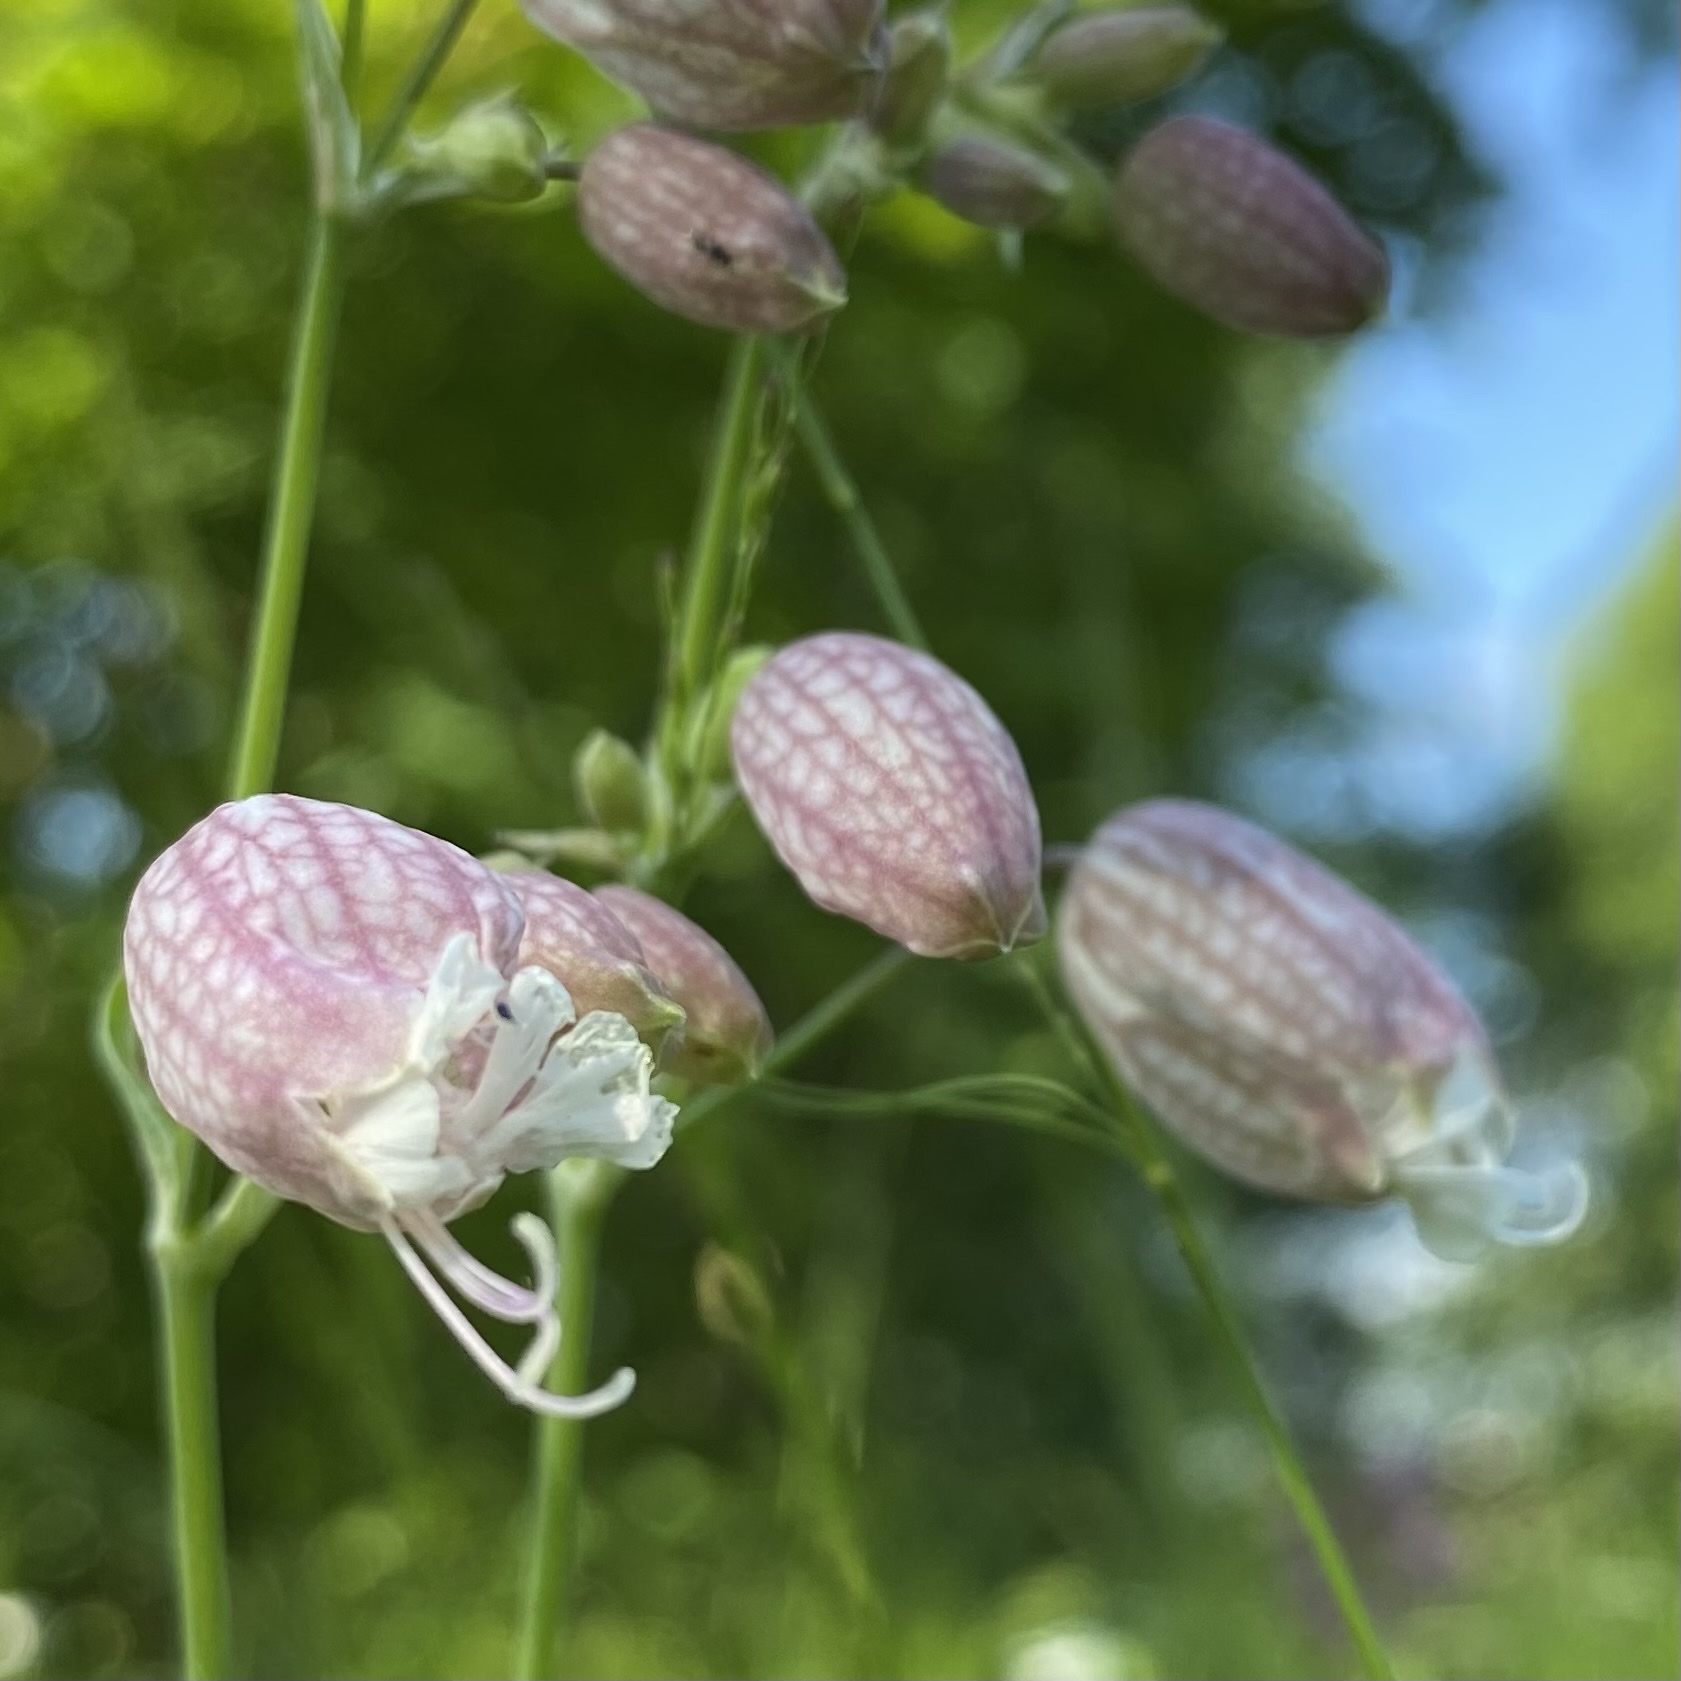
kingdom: Plantae
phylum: Tracheophyta
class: Magnoliopsida
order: Caryophyllales
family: Caryophyllaceae
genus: Silene
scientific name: Silene vulgaris
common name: Bladder campion
